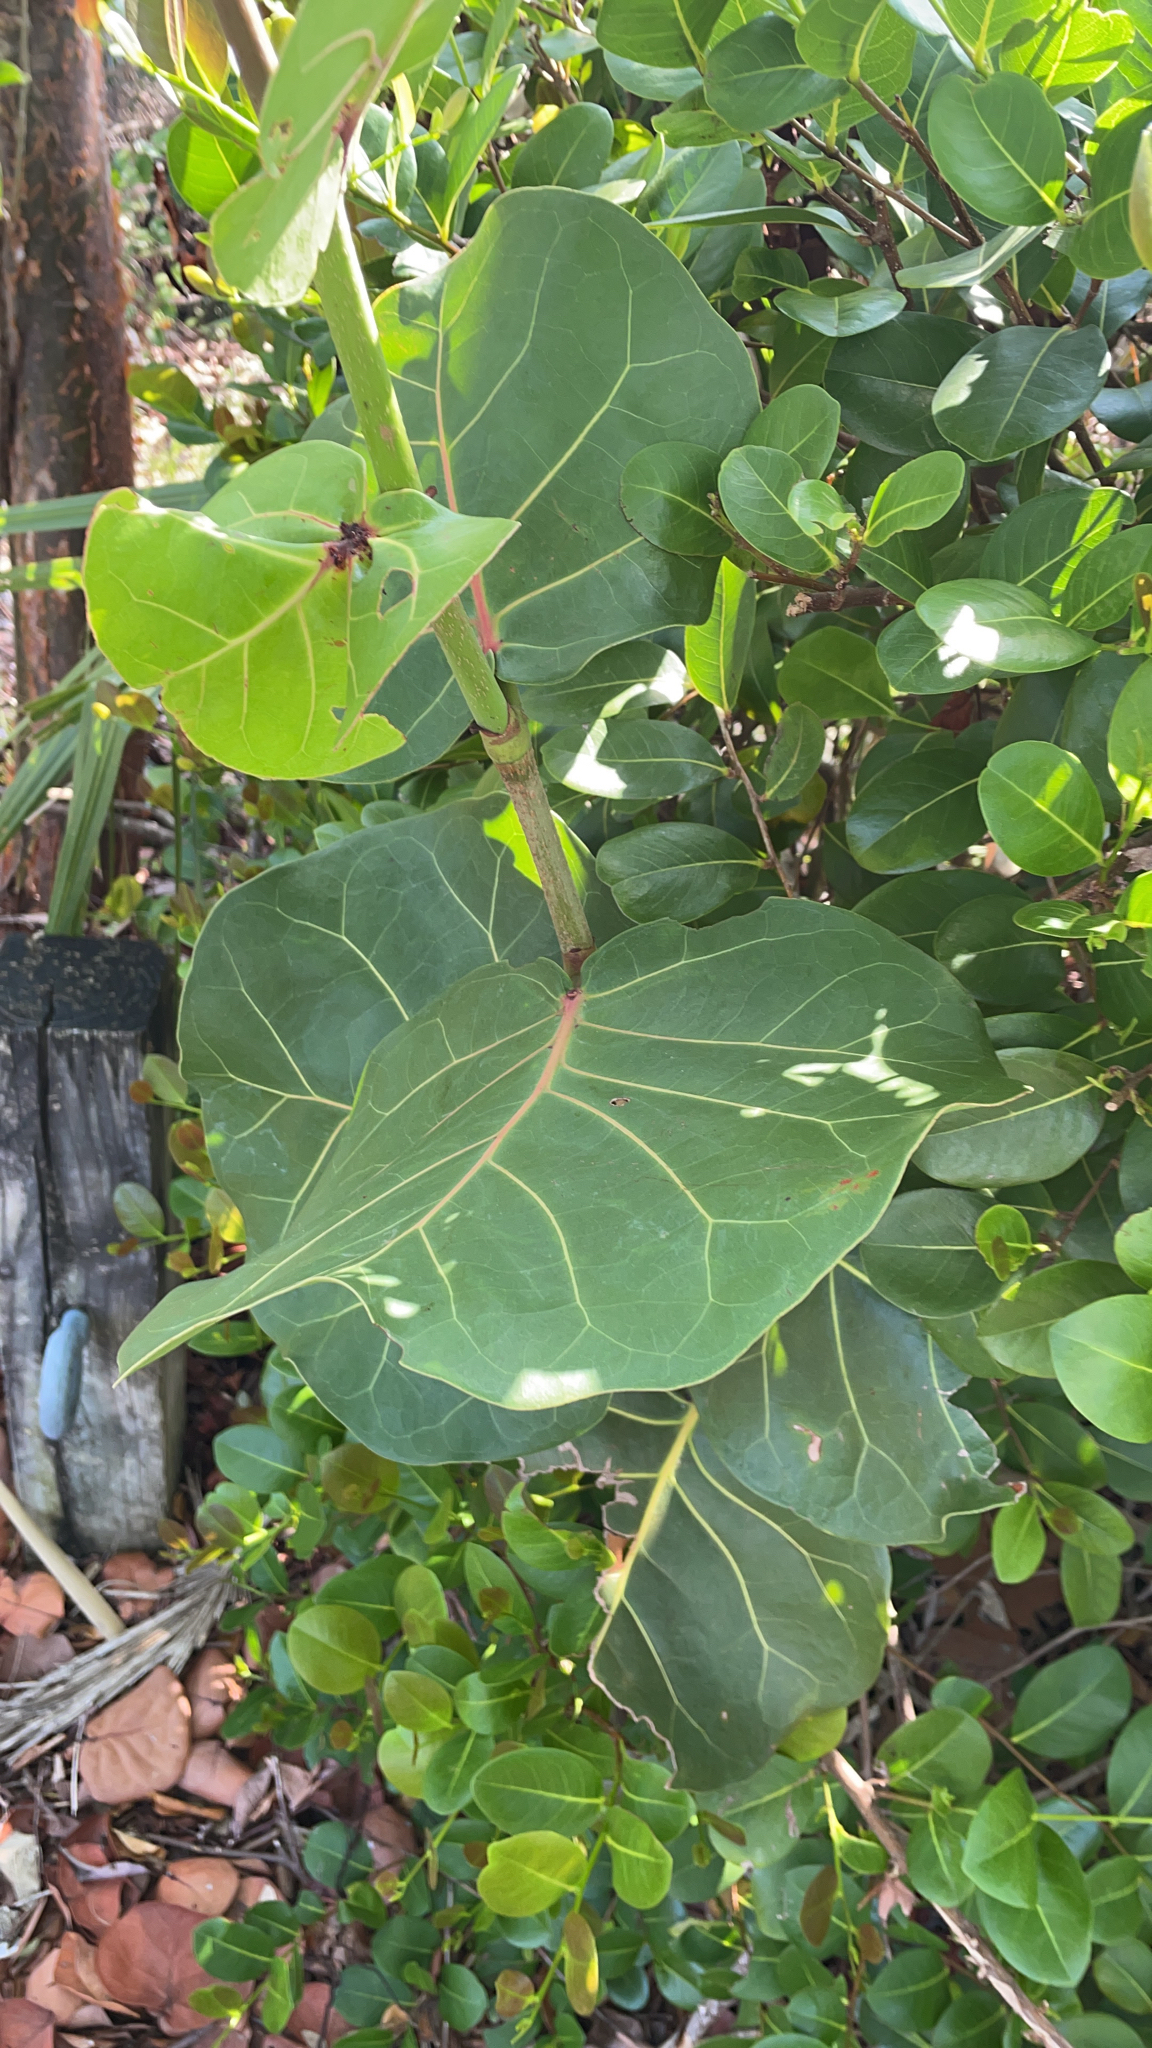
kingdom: Plantae
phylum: Tracheophyta
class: Magnoliopsida
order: Caryophyllales
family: Polygonaceae
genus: Coccoloba
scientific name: Coccoloba uvifera
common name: Seagrape
